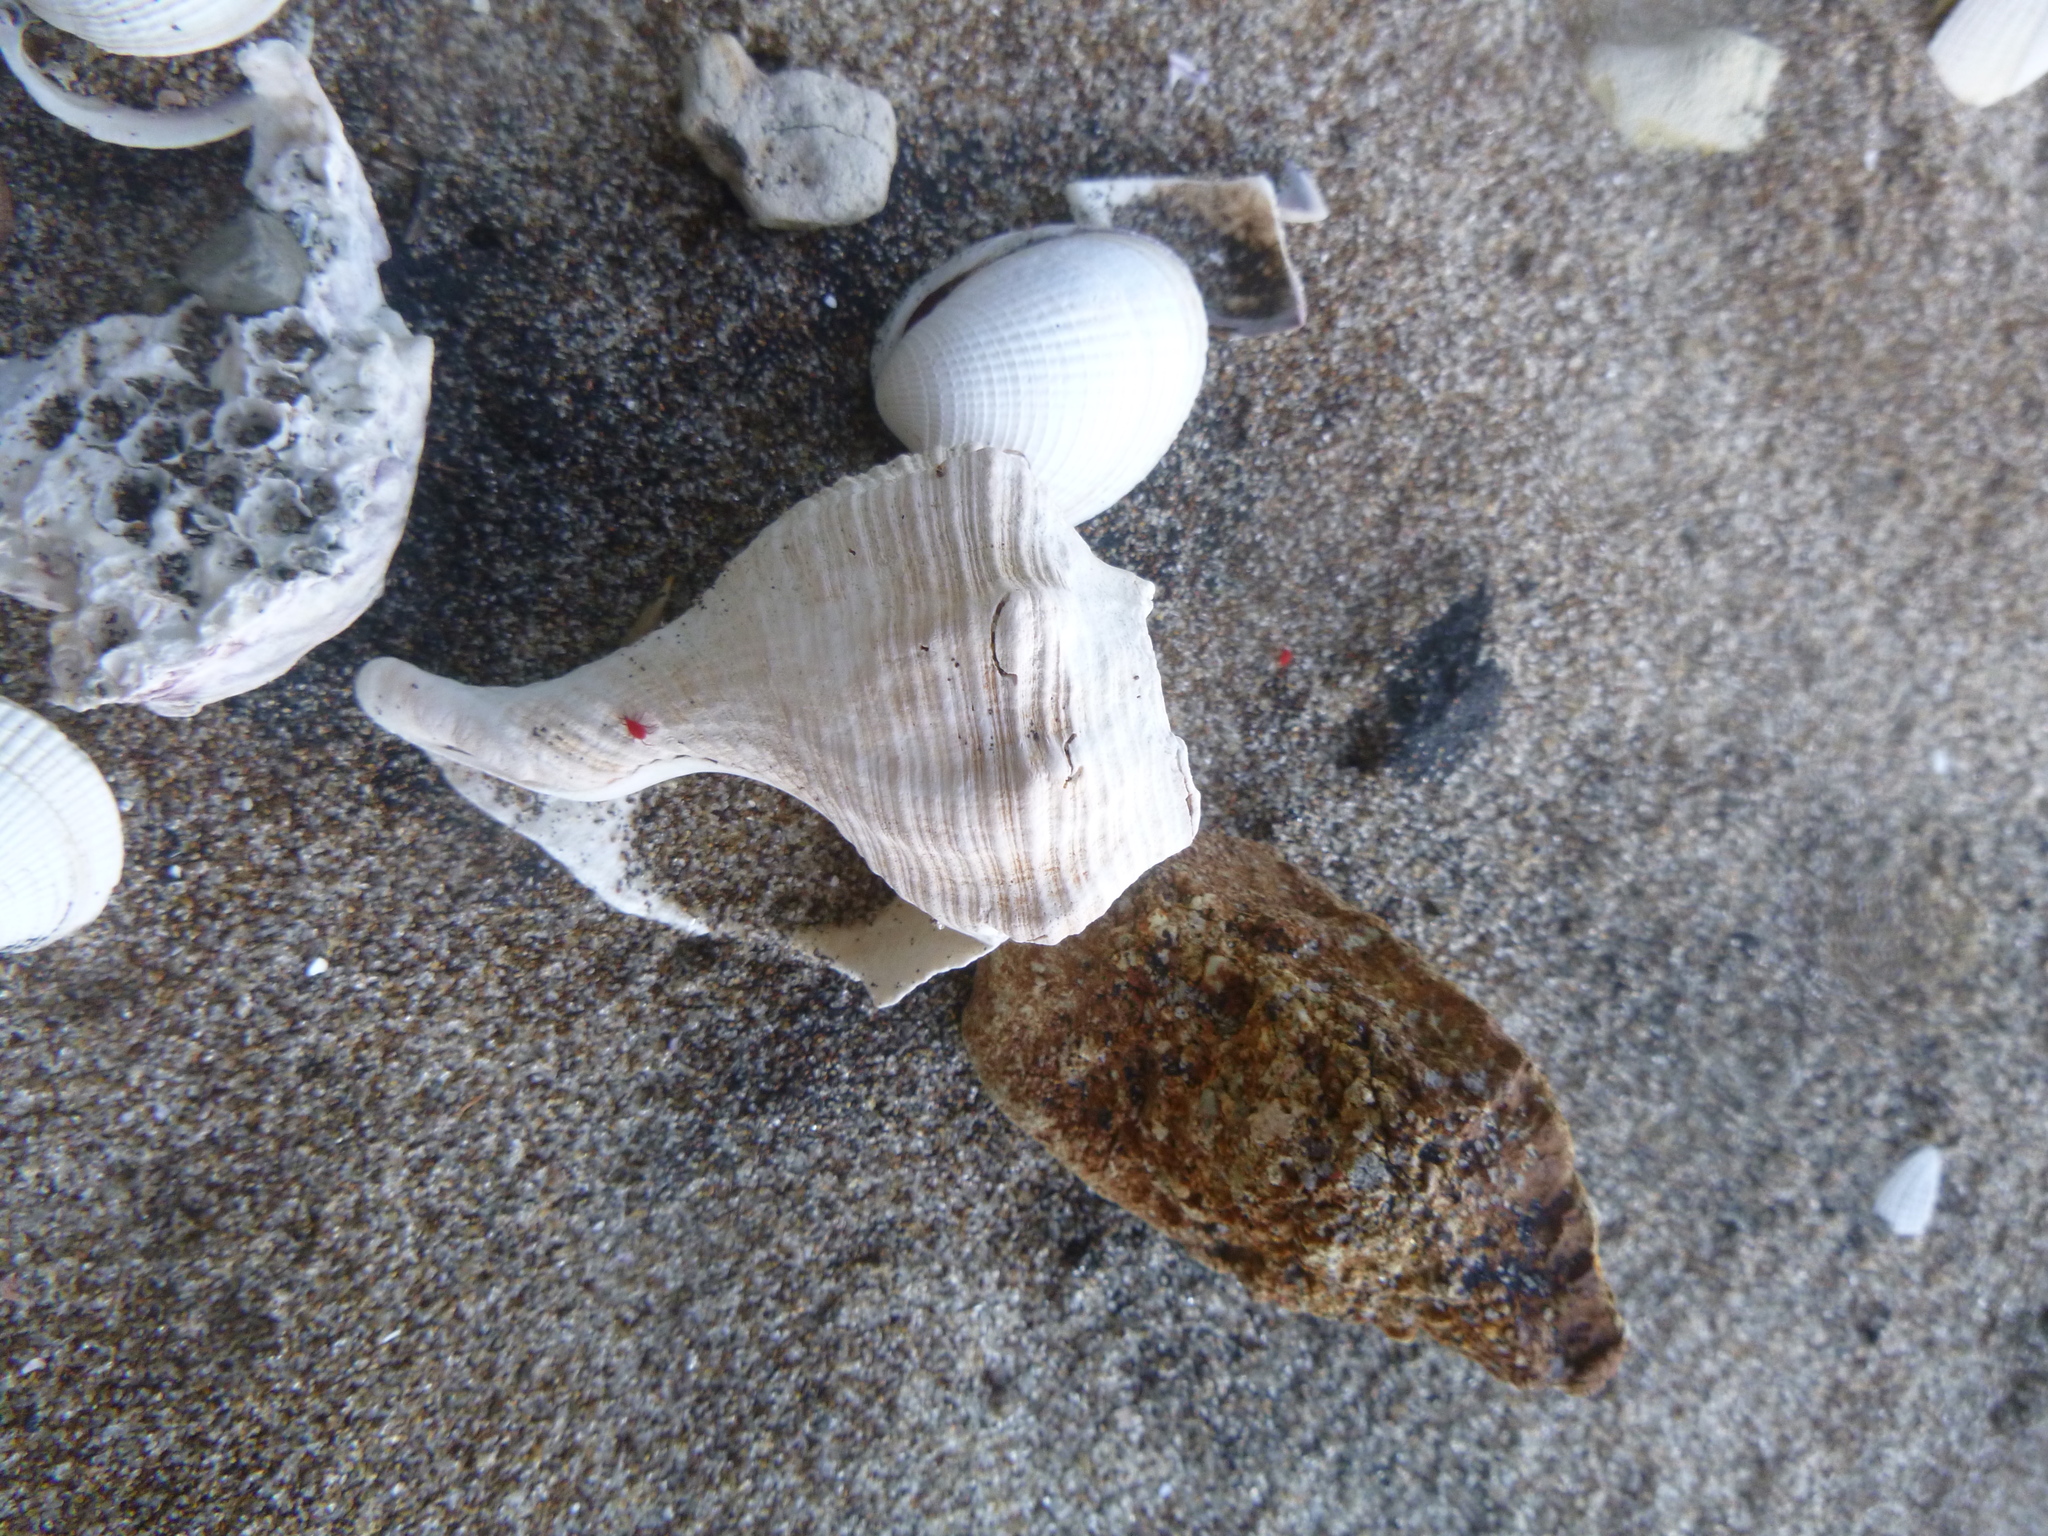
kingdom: Animalia
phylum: Mollusca
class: Gastropoda
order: Neogastropoda
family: Austrosiphonidae
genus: Penion
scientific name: Penion sulcatus
